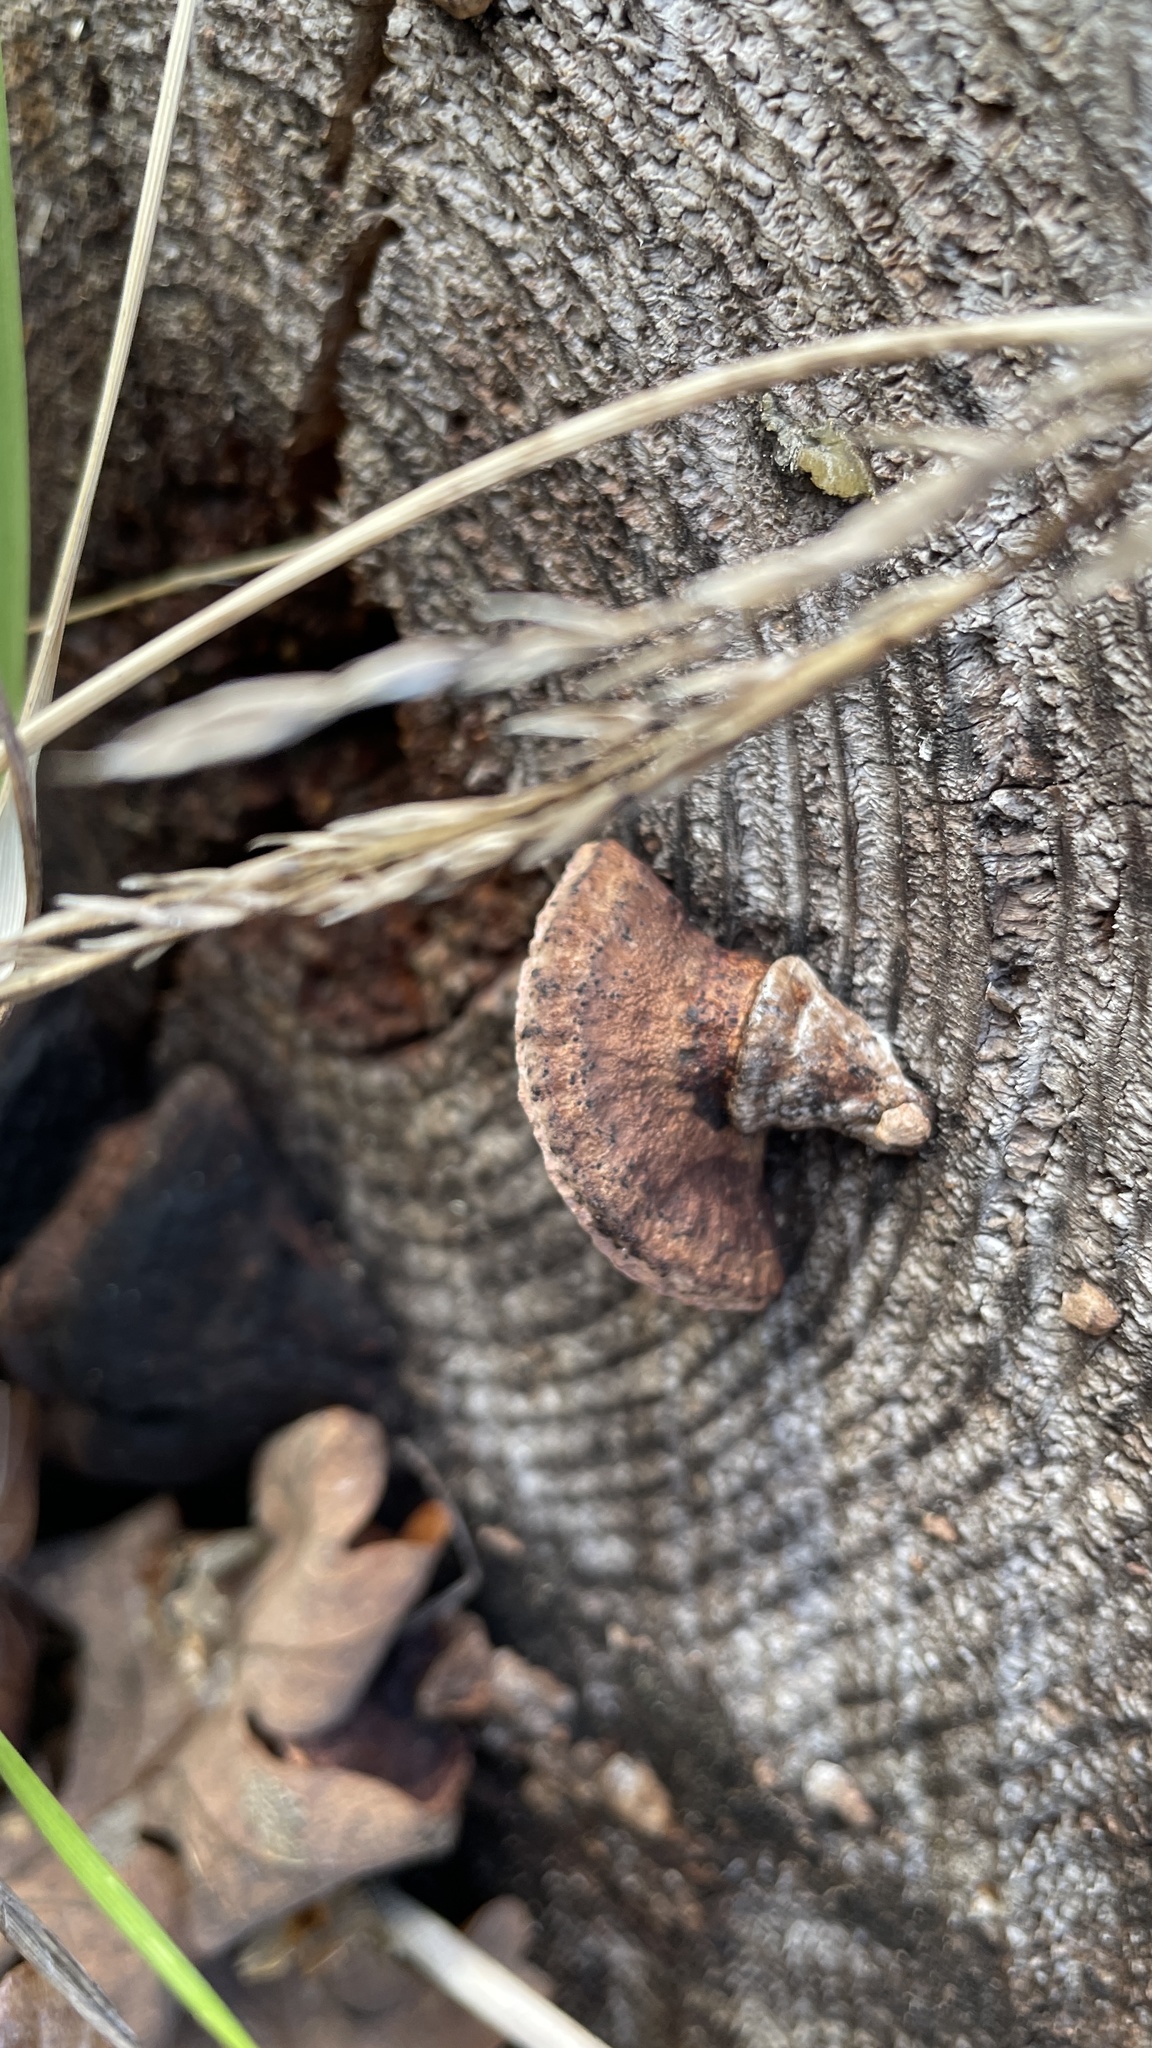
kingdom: Fungi
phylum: Basidiomycota
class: Agaricomycetes
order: Polyporales
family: Fomitopsidaceae
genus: Fomitopsis
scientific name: Fomitopsis
